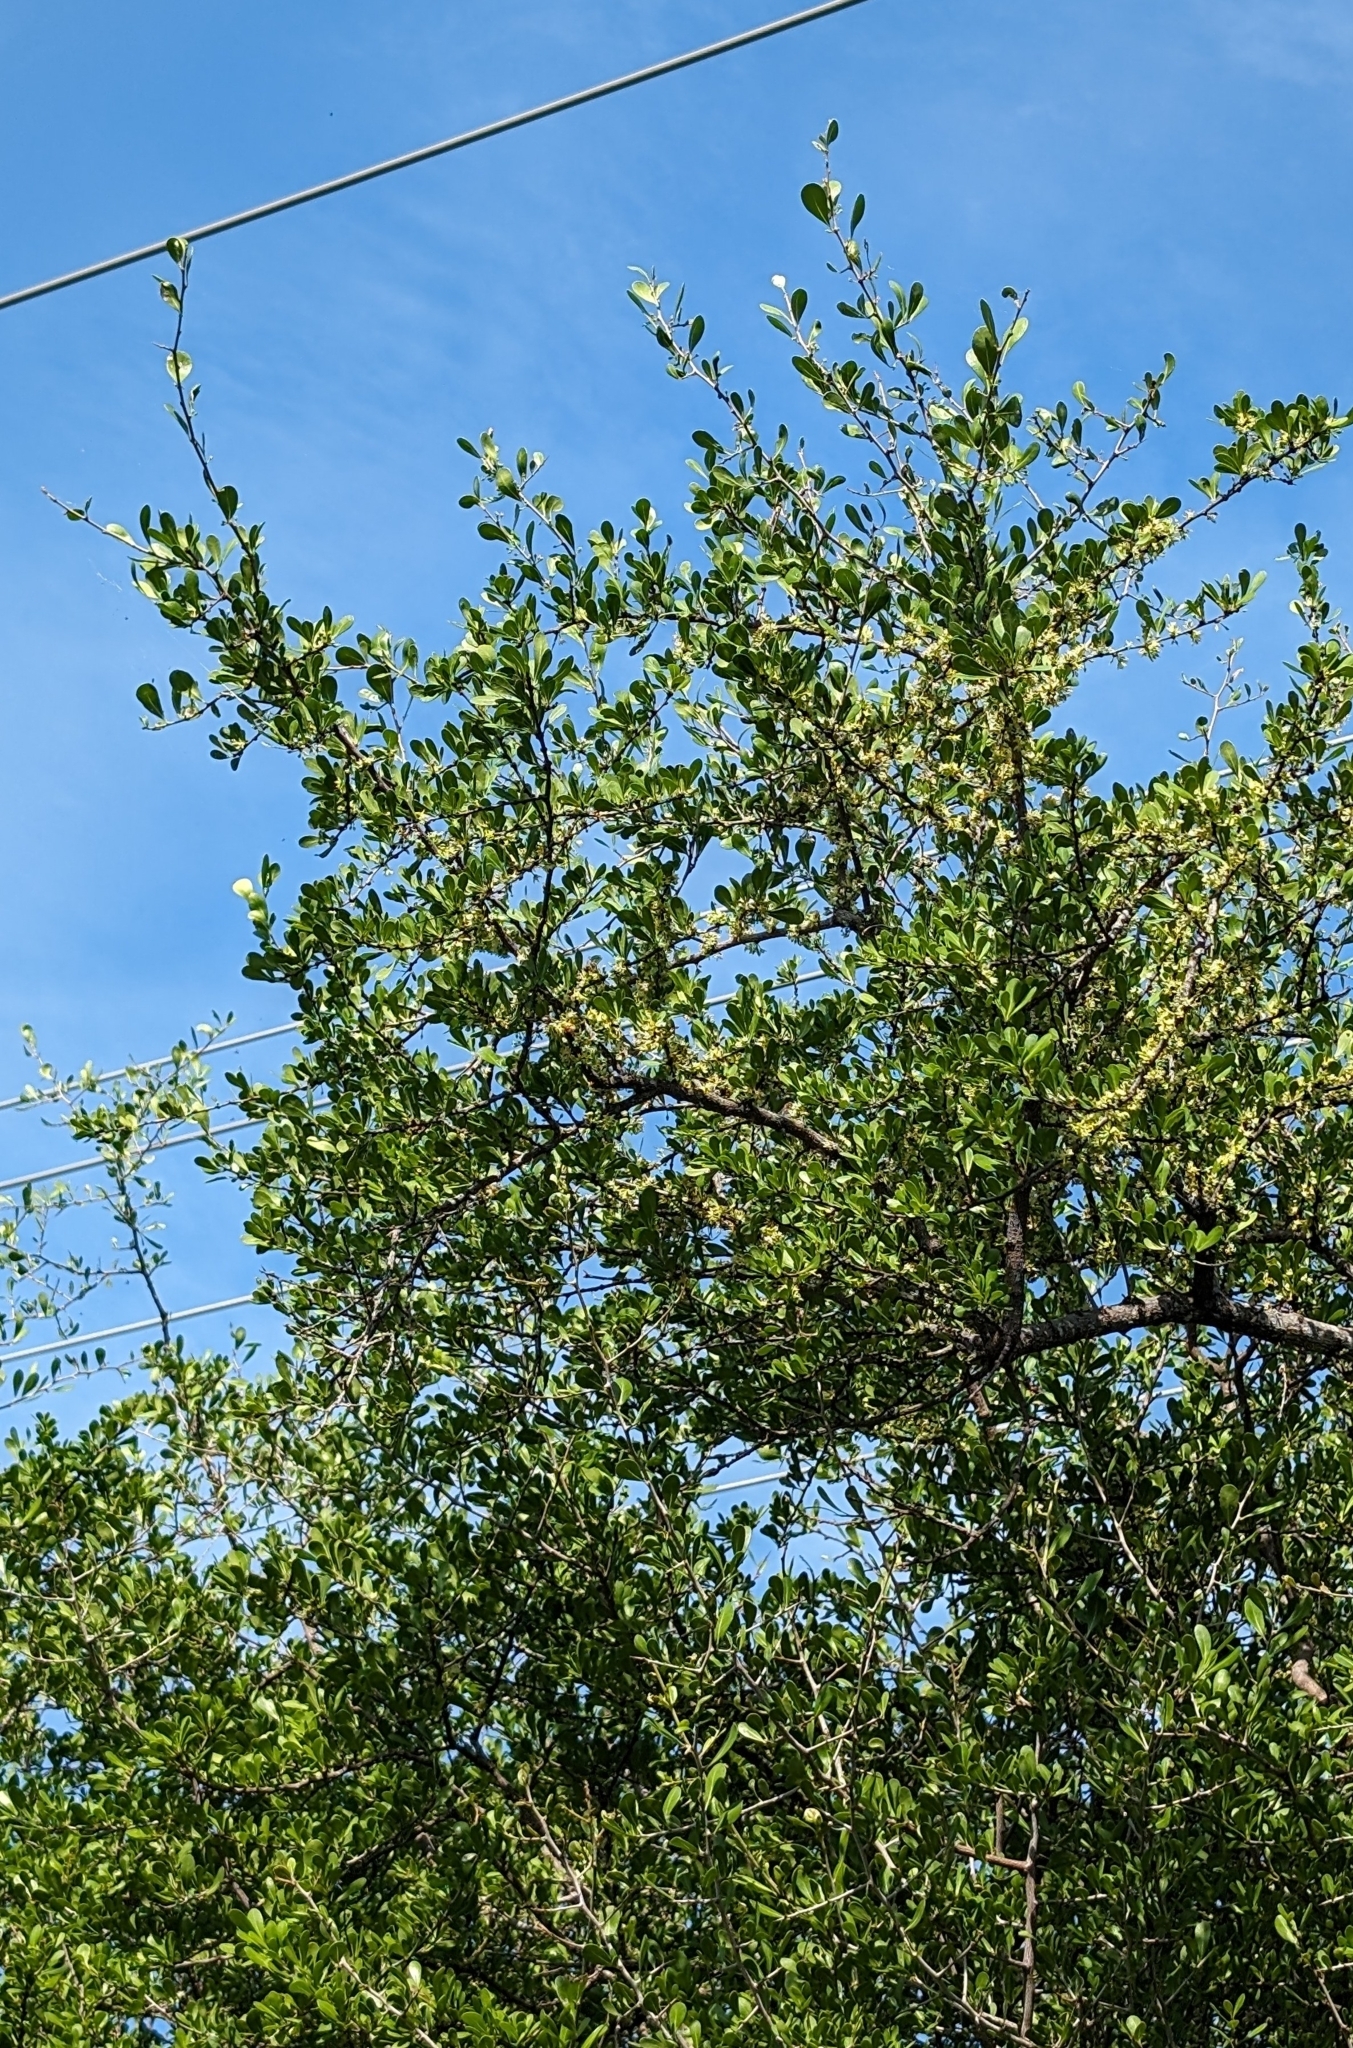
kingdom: Plantae
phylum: Tracheophyta
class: Magnoliopsida
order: Ericales
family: Sapotaceae
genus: Sideroxylon
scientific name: Sideroxylon celastrinum
